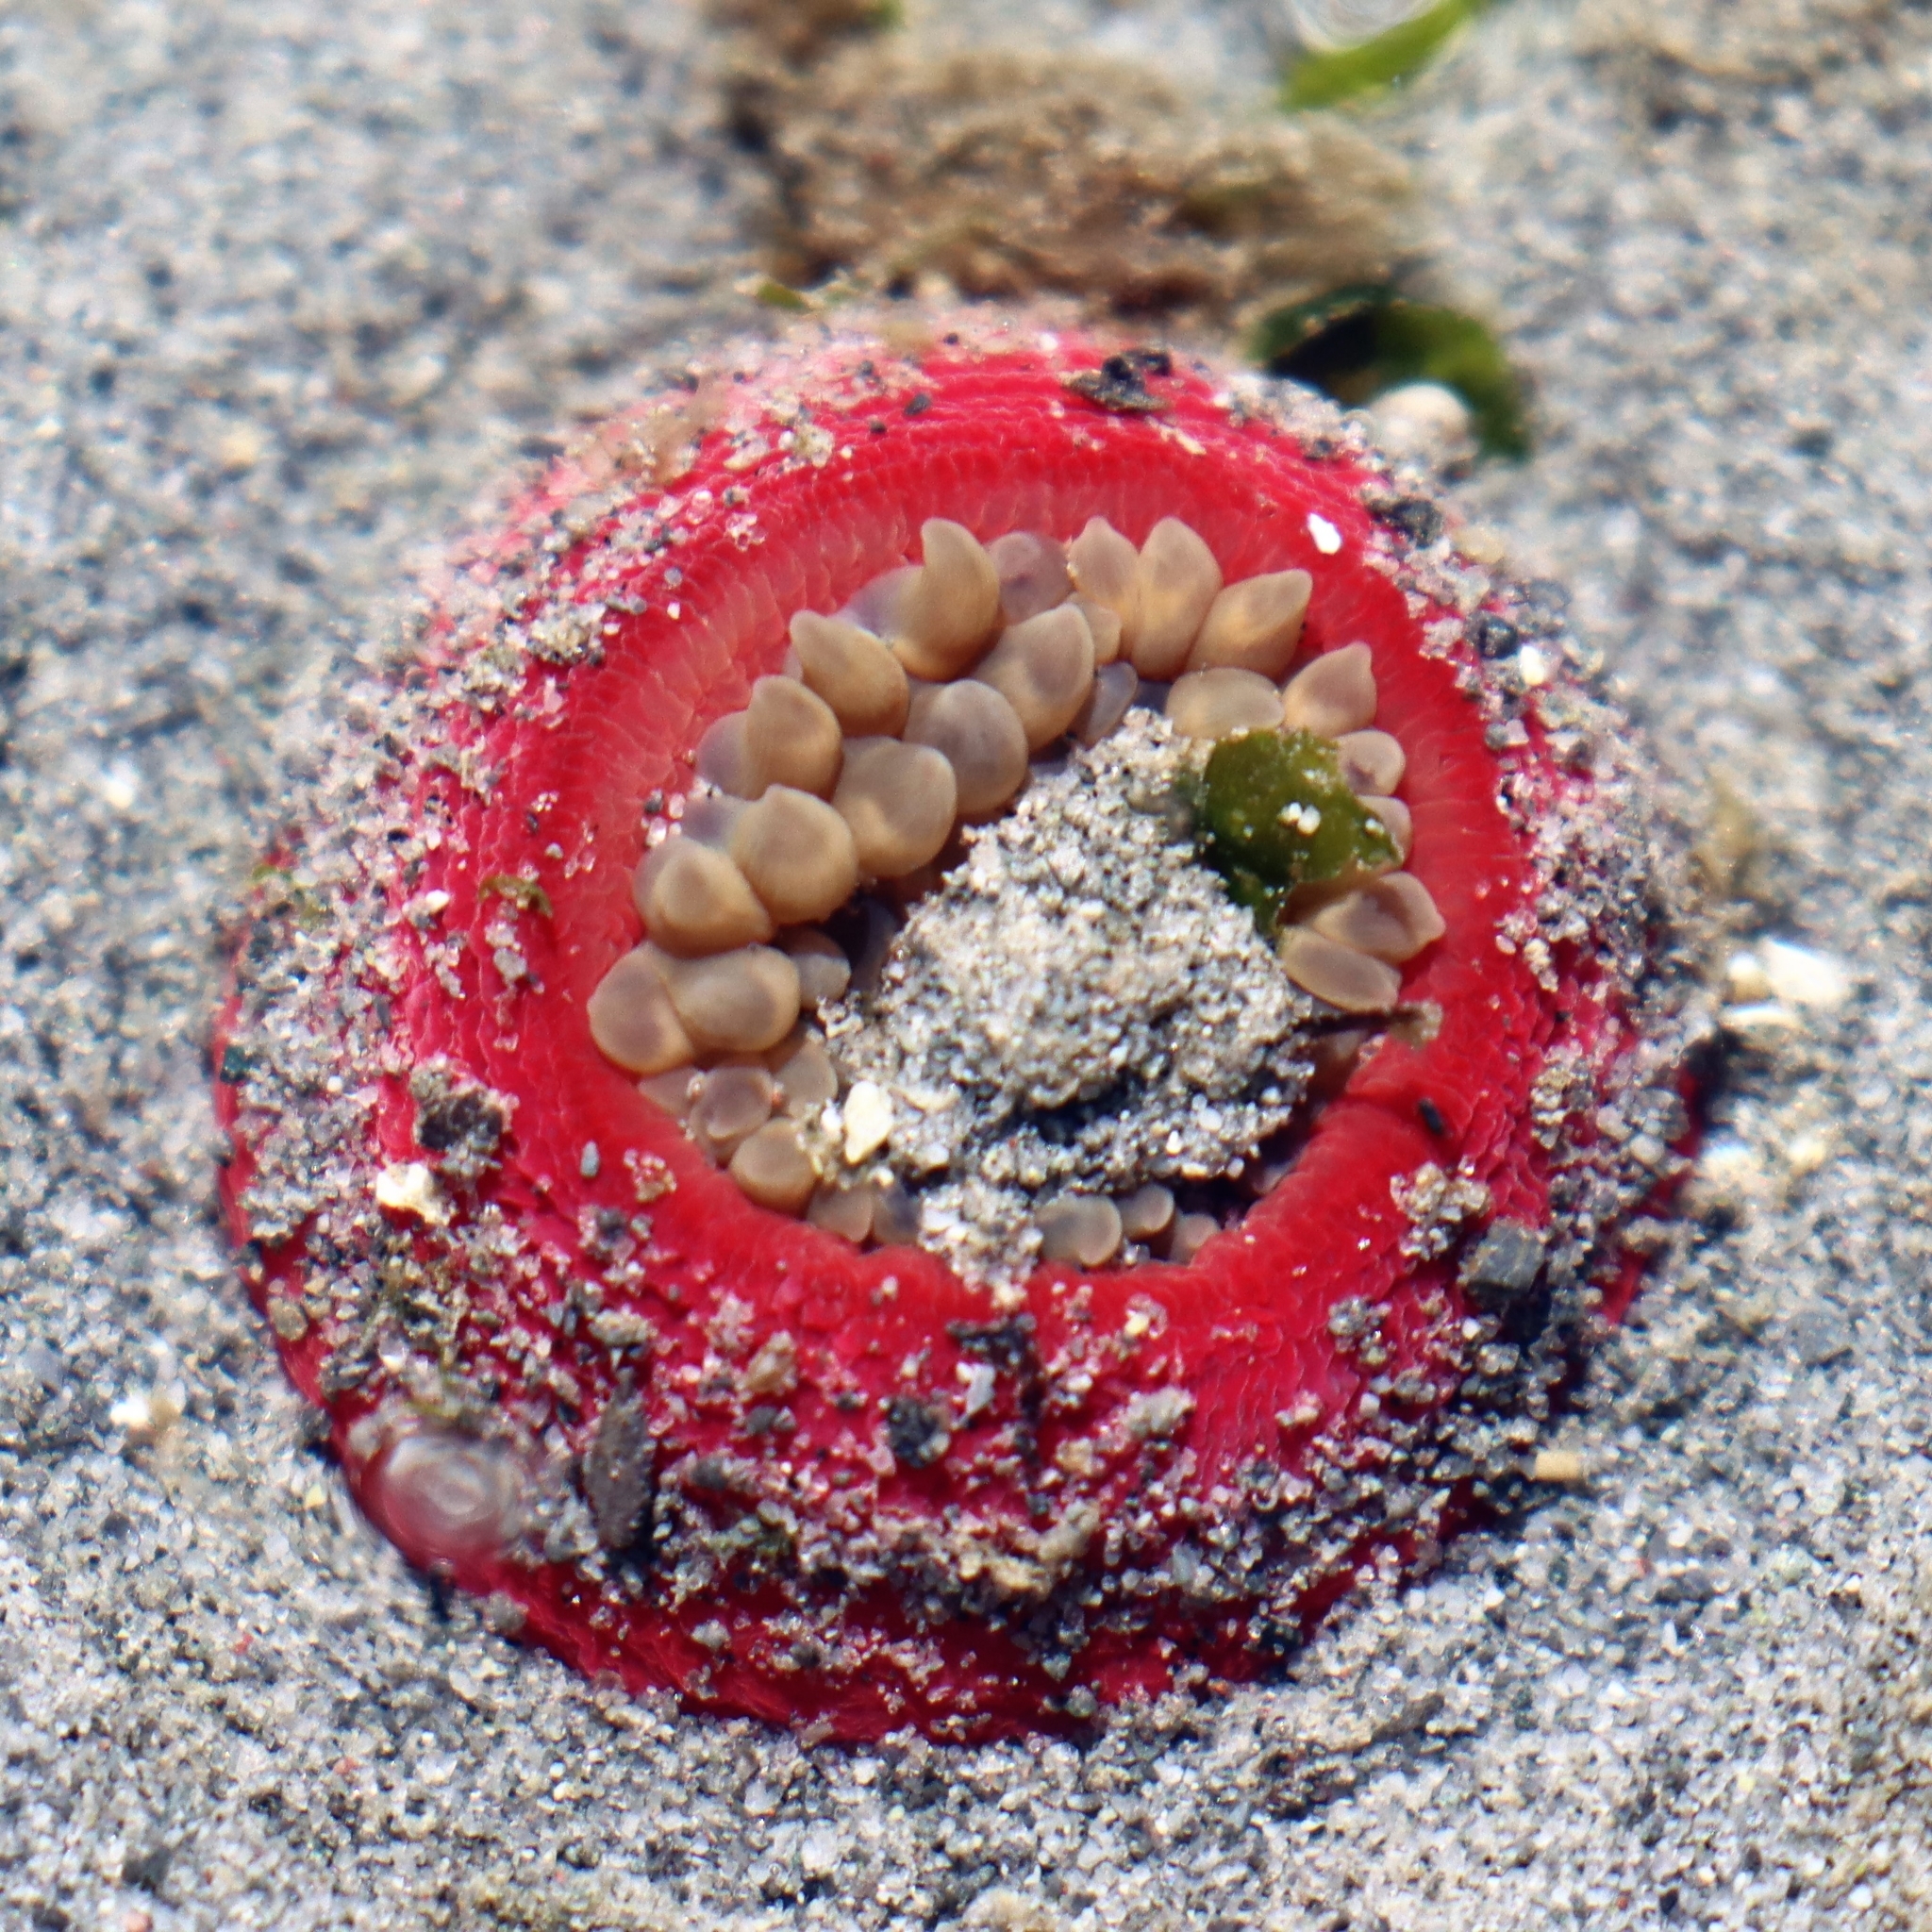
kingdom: Animalia
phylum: Cnidaria
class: Anthozoa
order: Actiniaria
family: Actiniidae
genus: Urticina
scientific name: Urticina clandestina
